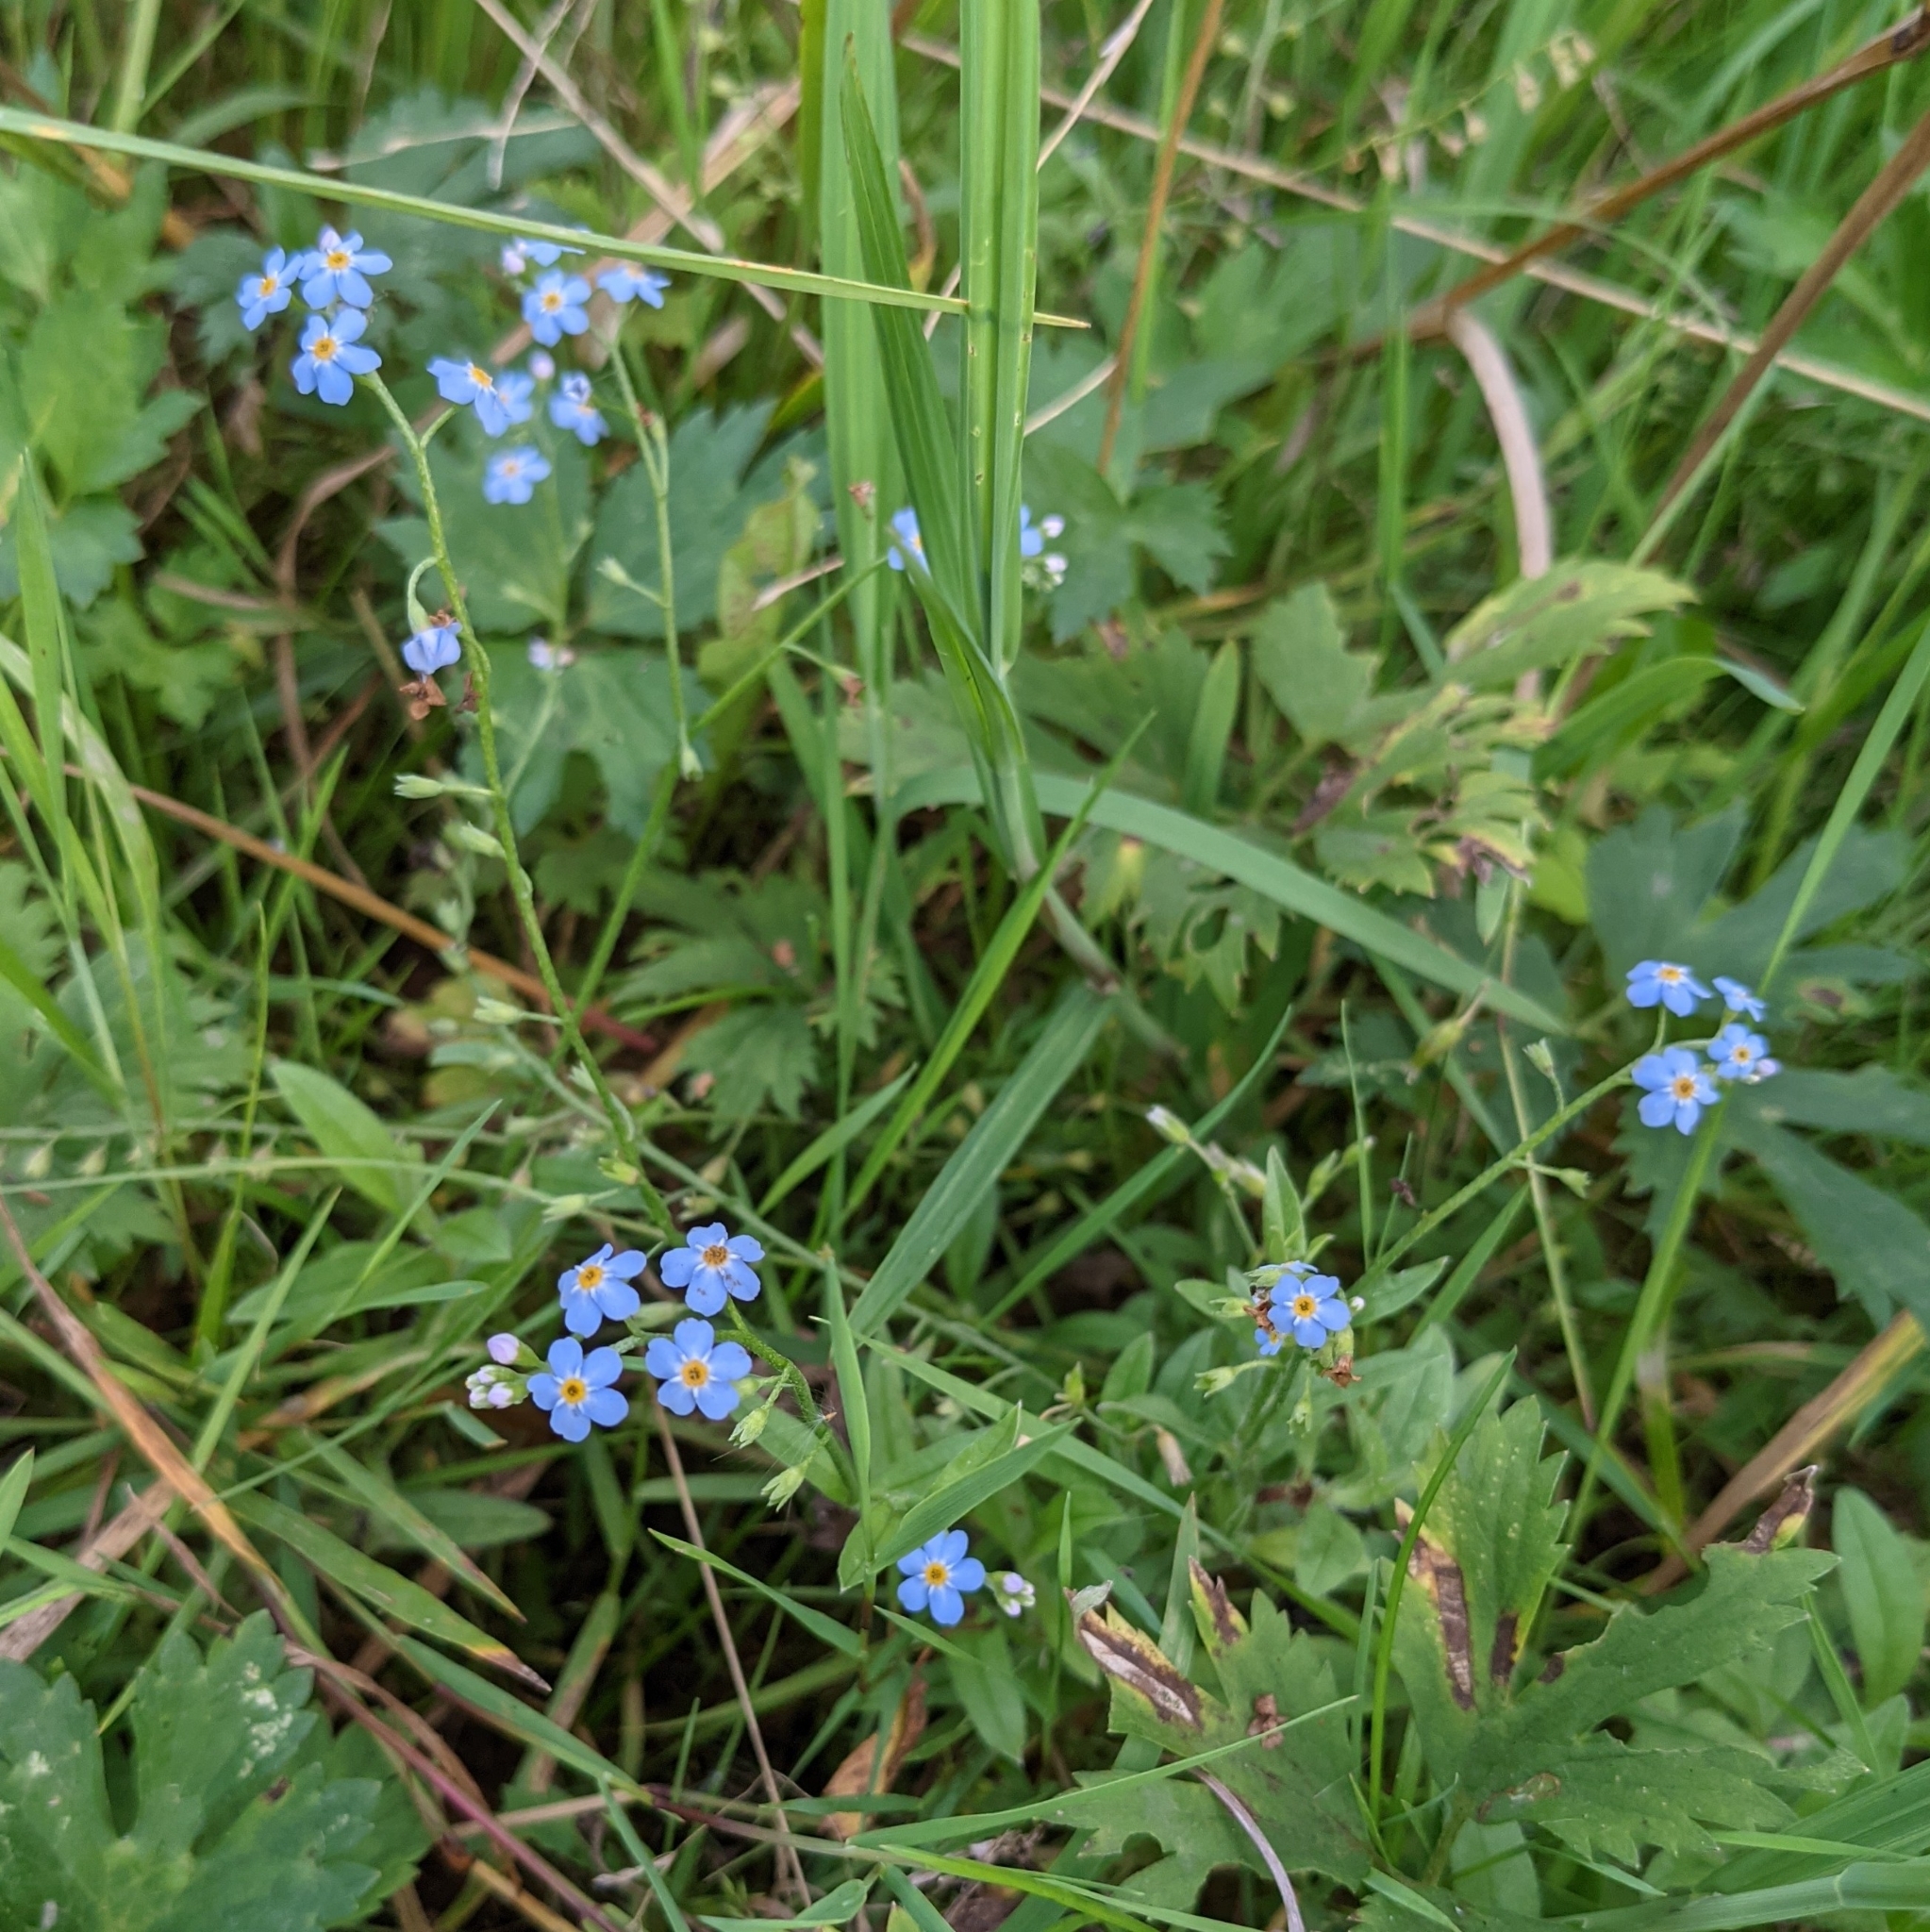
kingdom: Plantae
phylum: Tracheophyta
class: Magnoliopsida
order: Boraginales
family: Boraginaceae
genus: Myosotis
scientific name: Myosotis scorpioides
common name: Water forget-me-not
